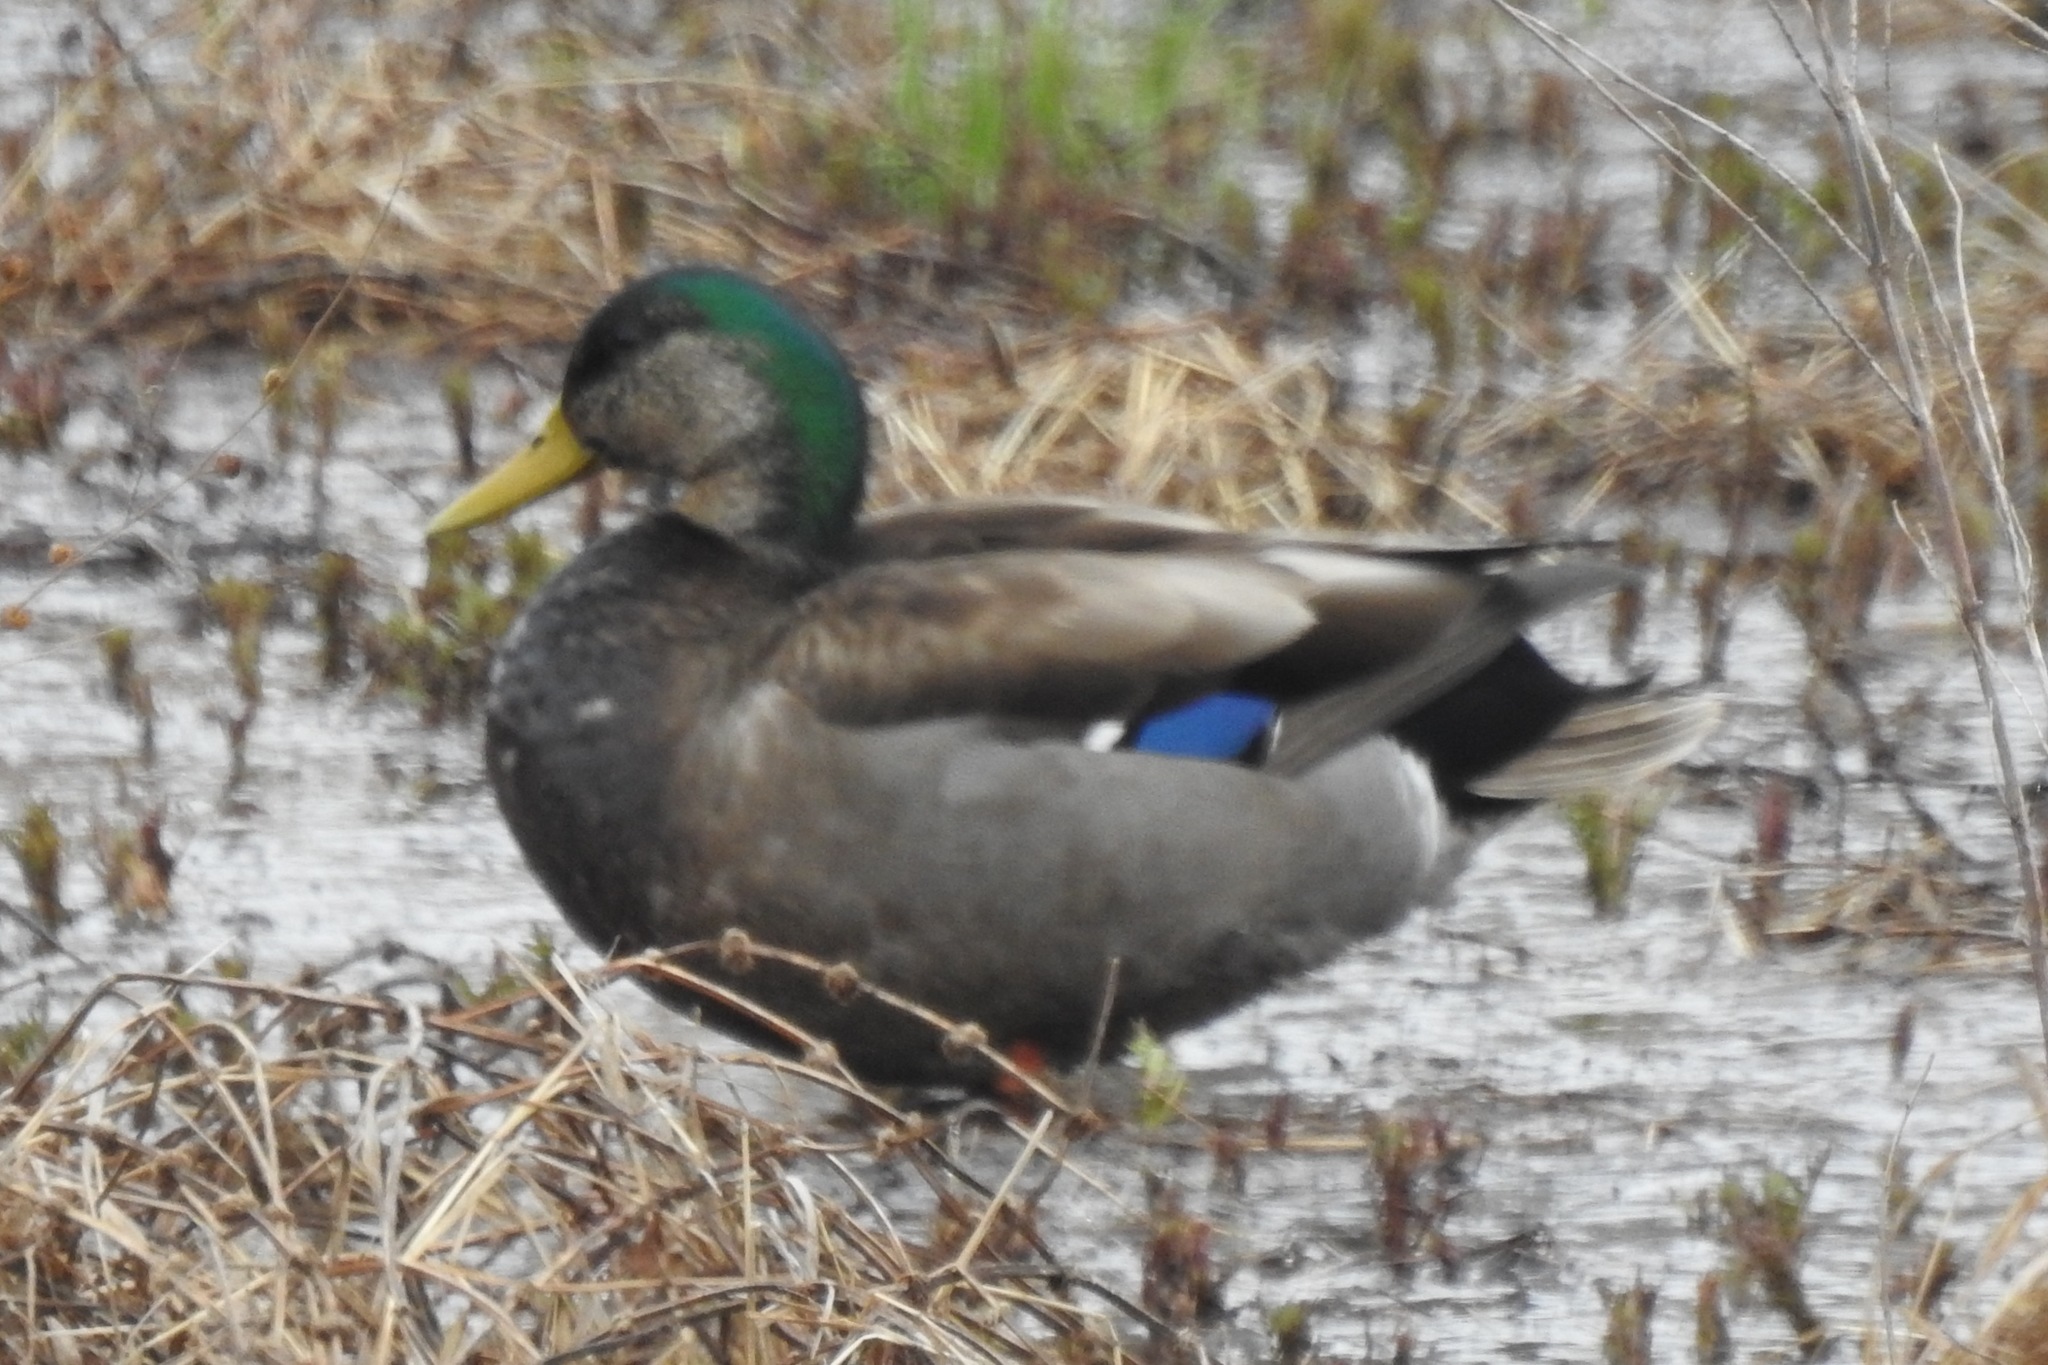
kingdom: Animalia
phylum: Chordata
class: Aves
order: Anseriformes
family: Anatidae
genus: Anas
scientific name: Anas
